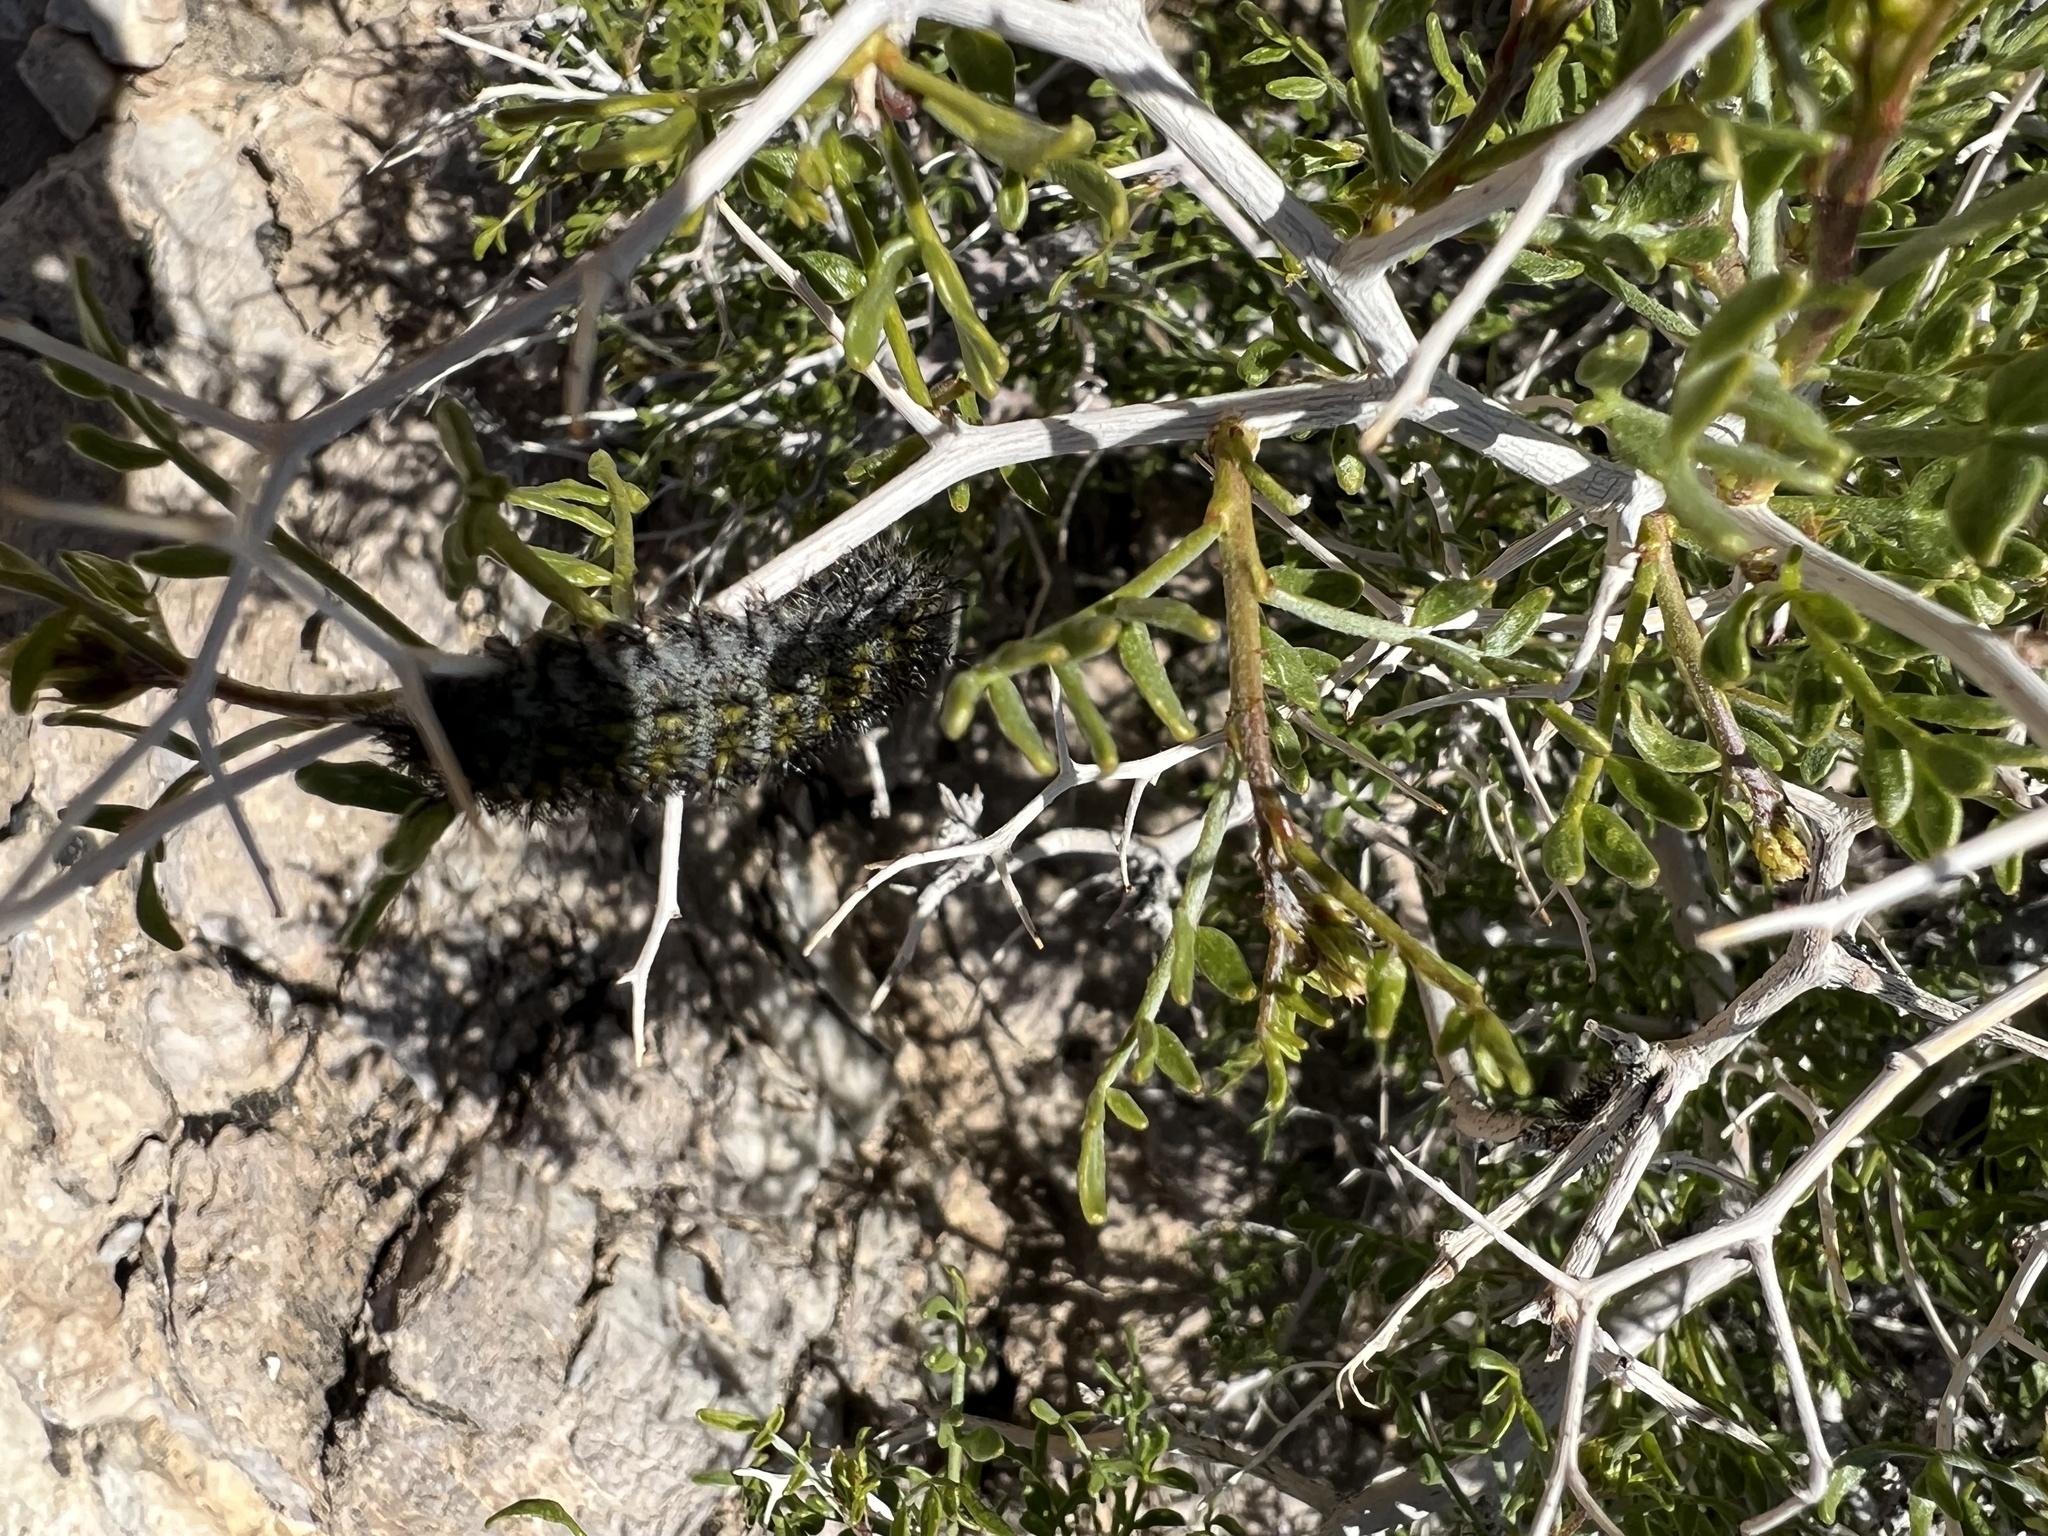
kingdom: Plantae
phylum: Tracheophyta
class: Magnoliopsida
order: Fabales
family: Fabaceae
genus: Psorothamnus
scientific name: Psorothamnus arborescens
